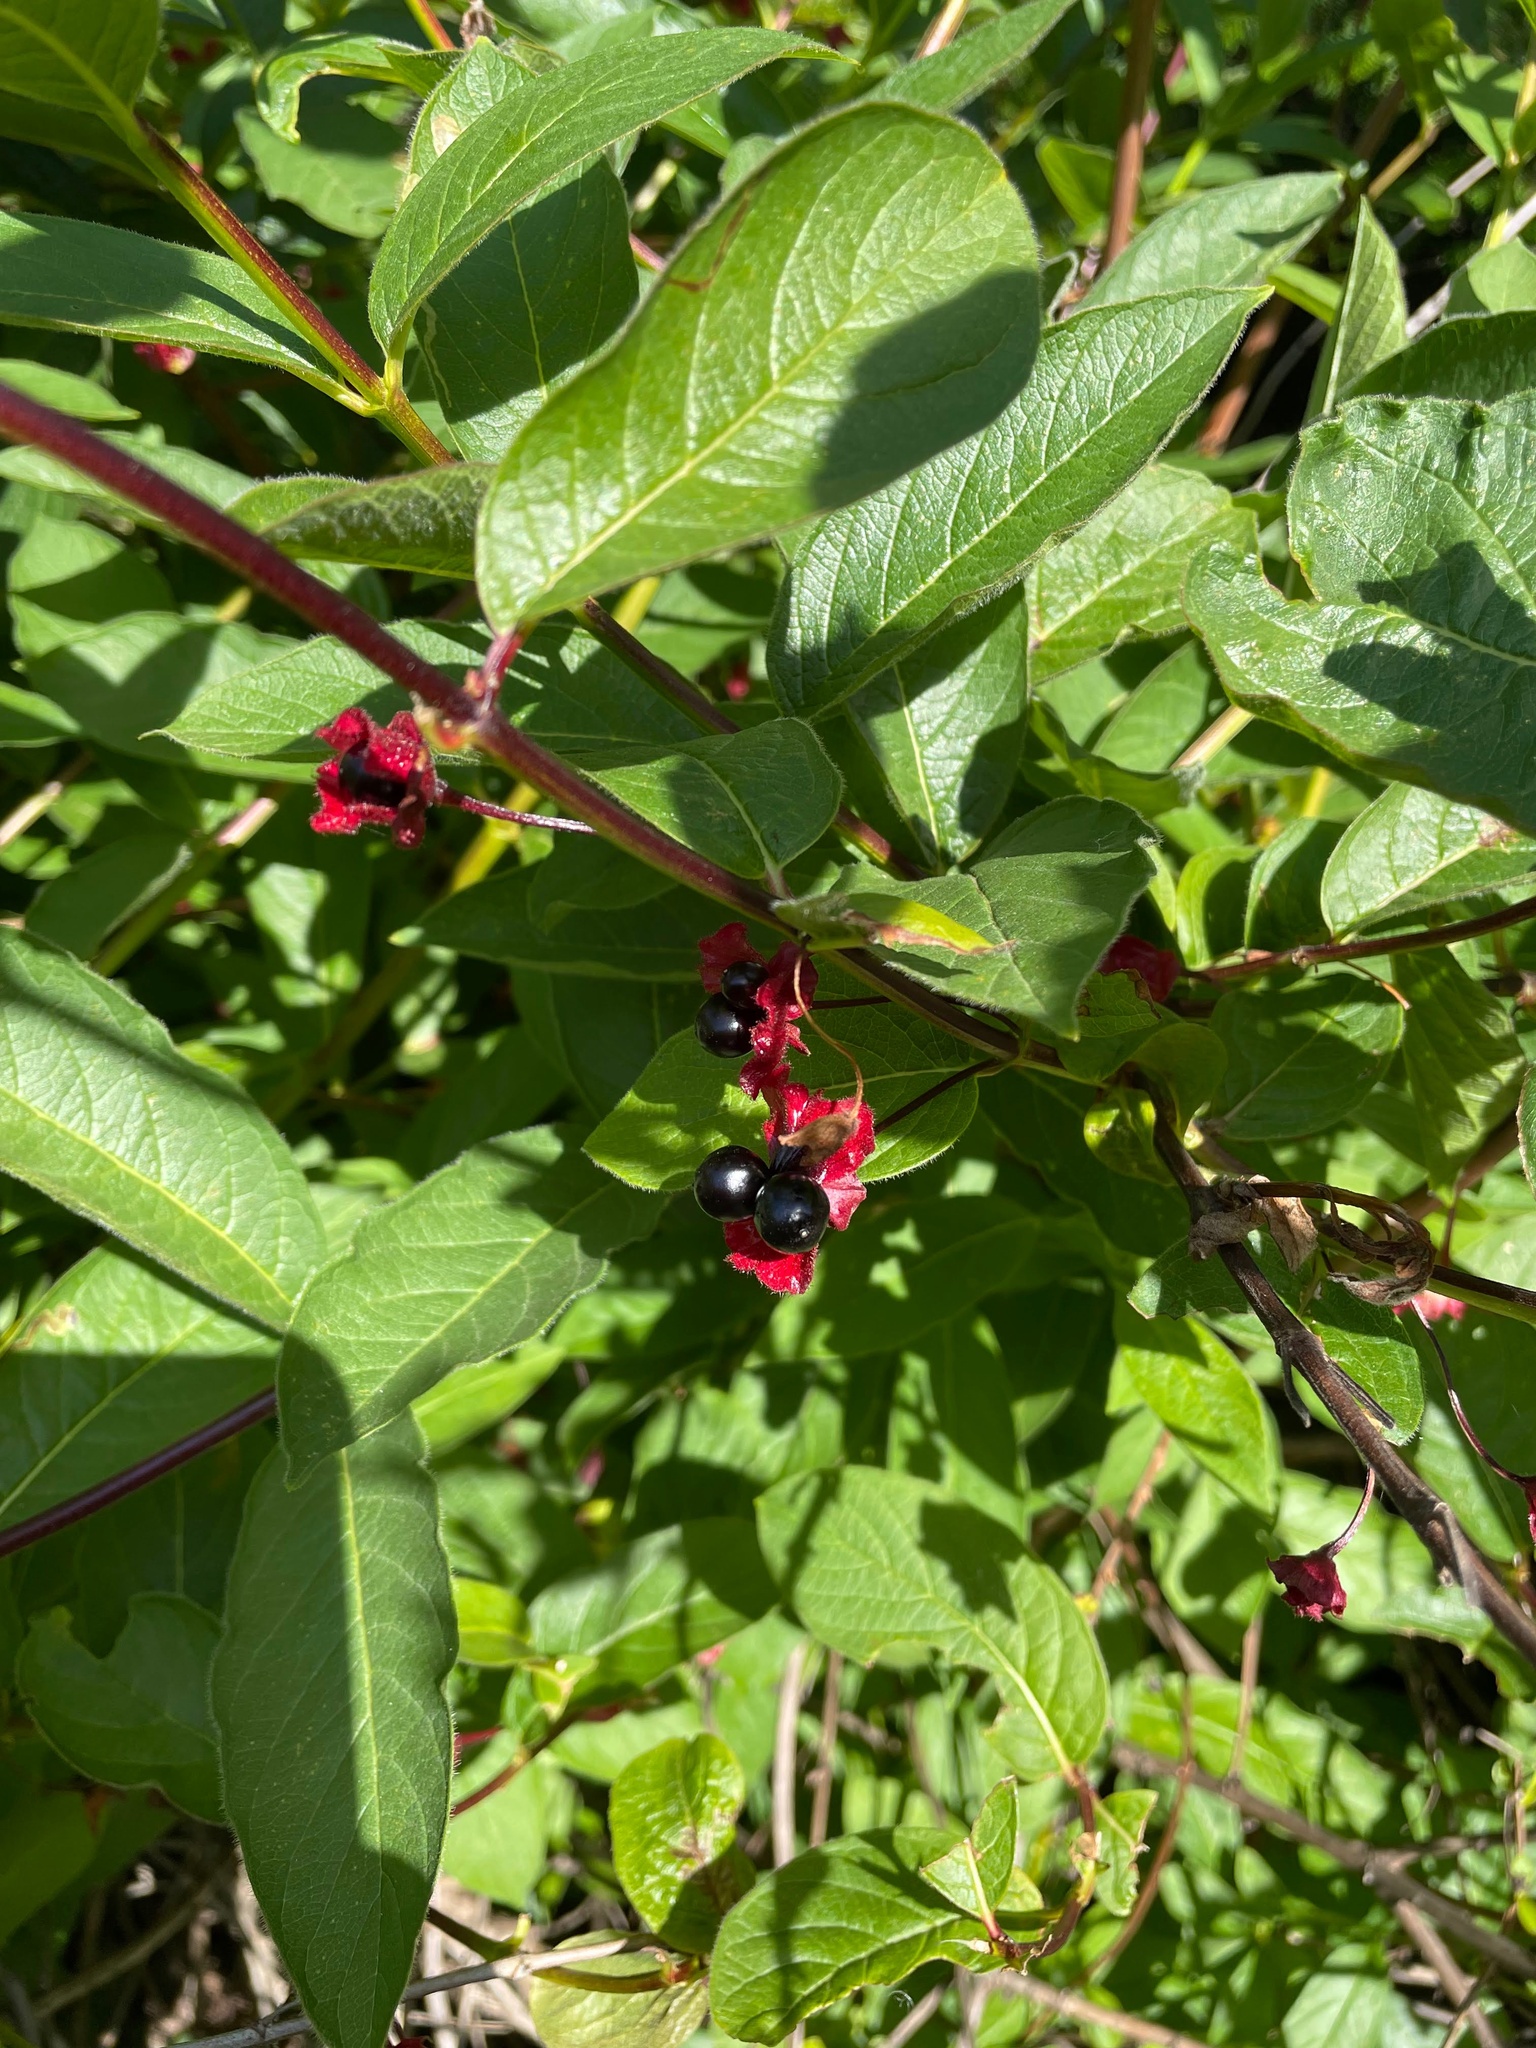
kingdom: Plantae
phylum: Tracheophyta
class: Magnoliopsida
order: Dipsacales
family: Caprifoliaceae
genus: Lonicera
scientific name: Lonicera involucrata
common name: Californian honeysuckle
